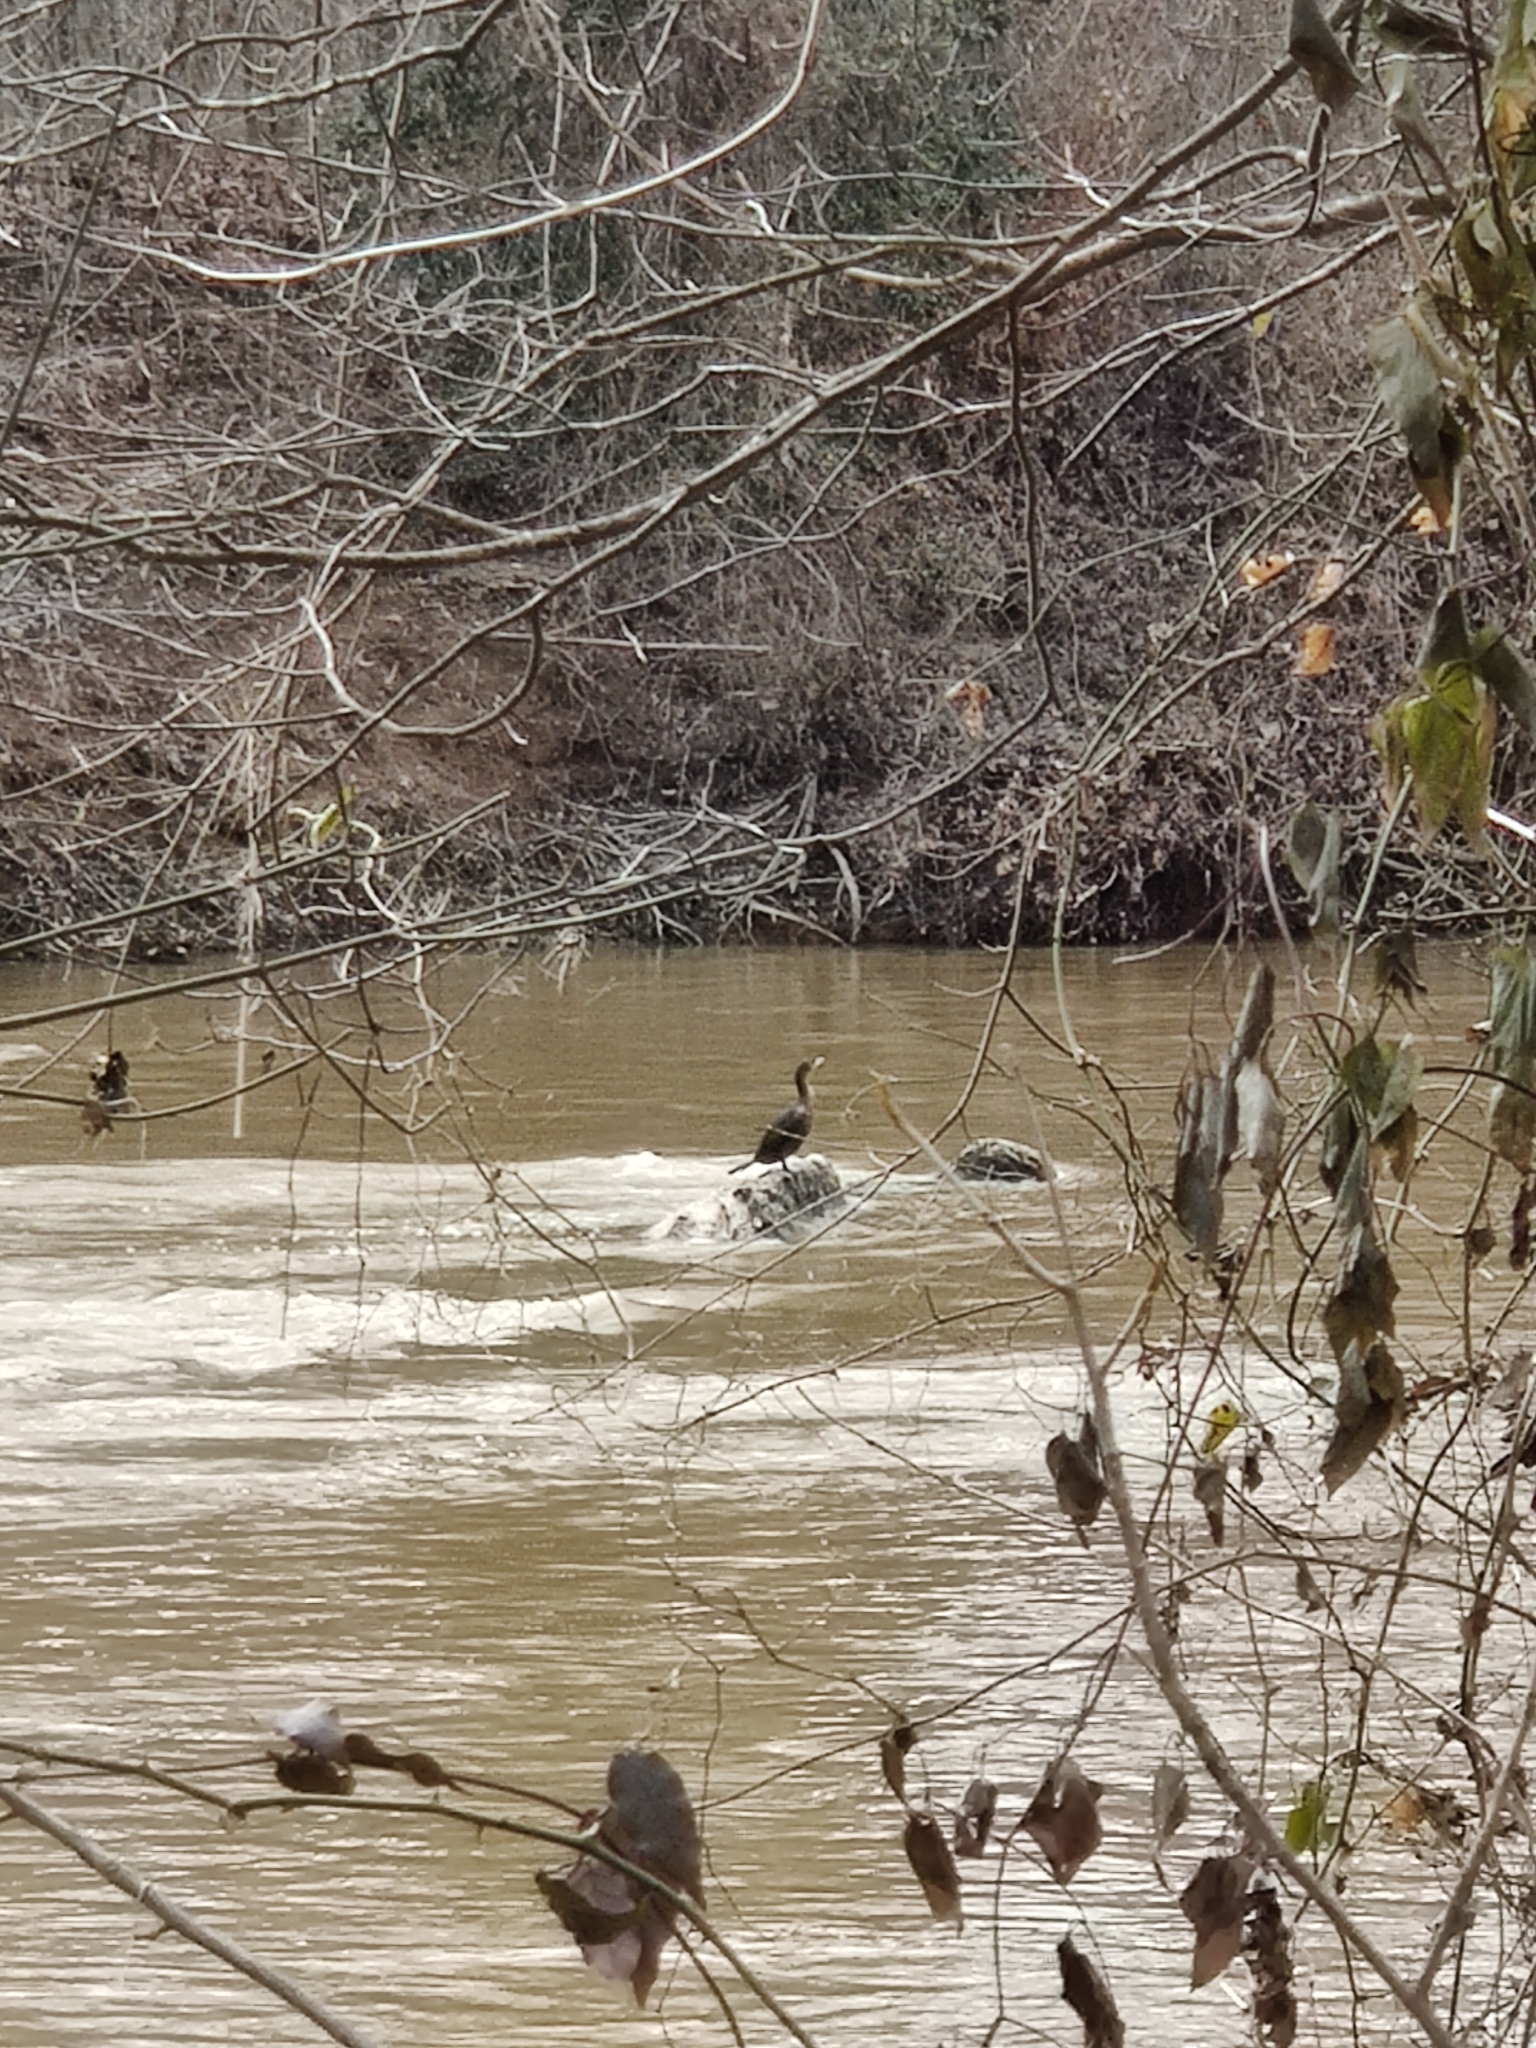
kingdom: Animalia
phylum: Chordata
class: Aves
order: Suliformes
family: Phalacrocoracidae
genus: Phalacrocorax
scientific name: Phalacrocorax auritus
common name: Double-crested cormorant
